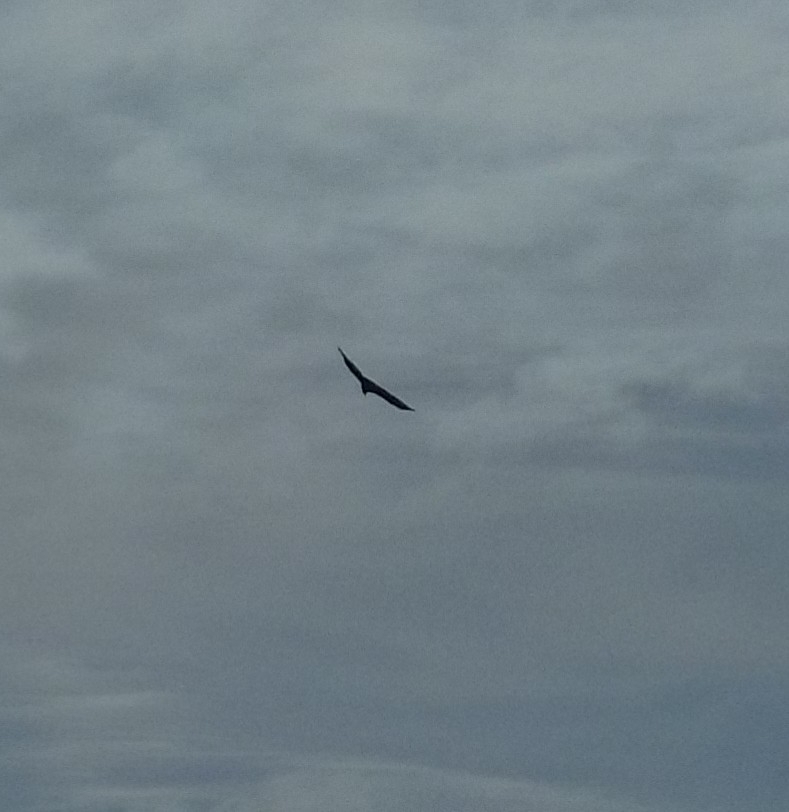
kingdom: Animalia
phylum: Chordata
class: Aves
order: Accipitriformes
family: Cathartidae
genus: Cathartes
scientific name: Cathartes aura
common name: Turkey vulture
